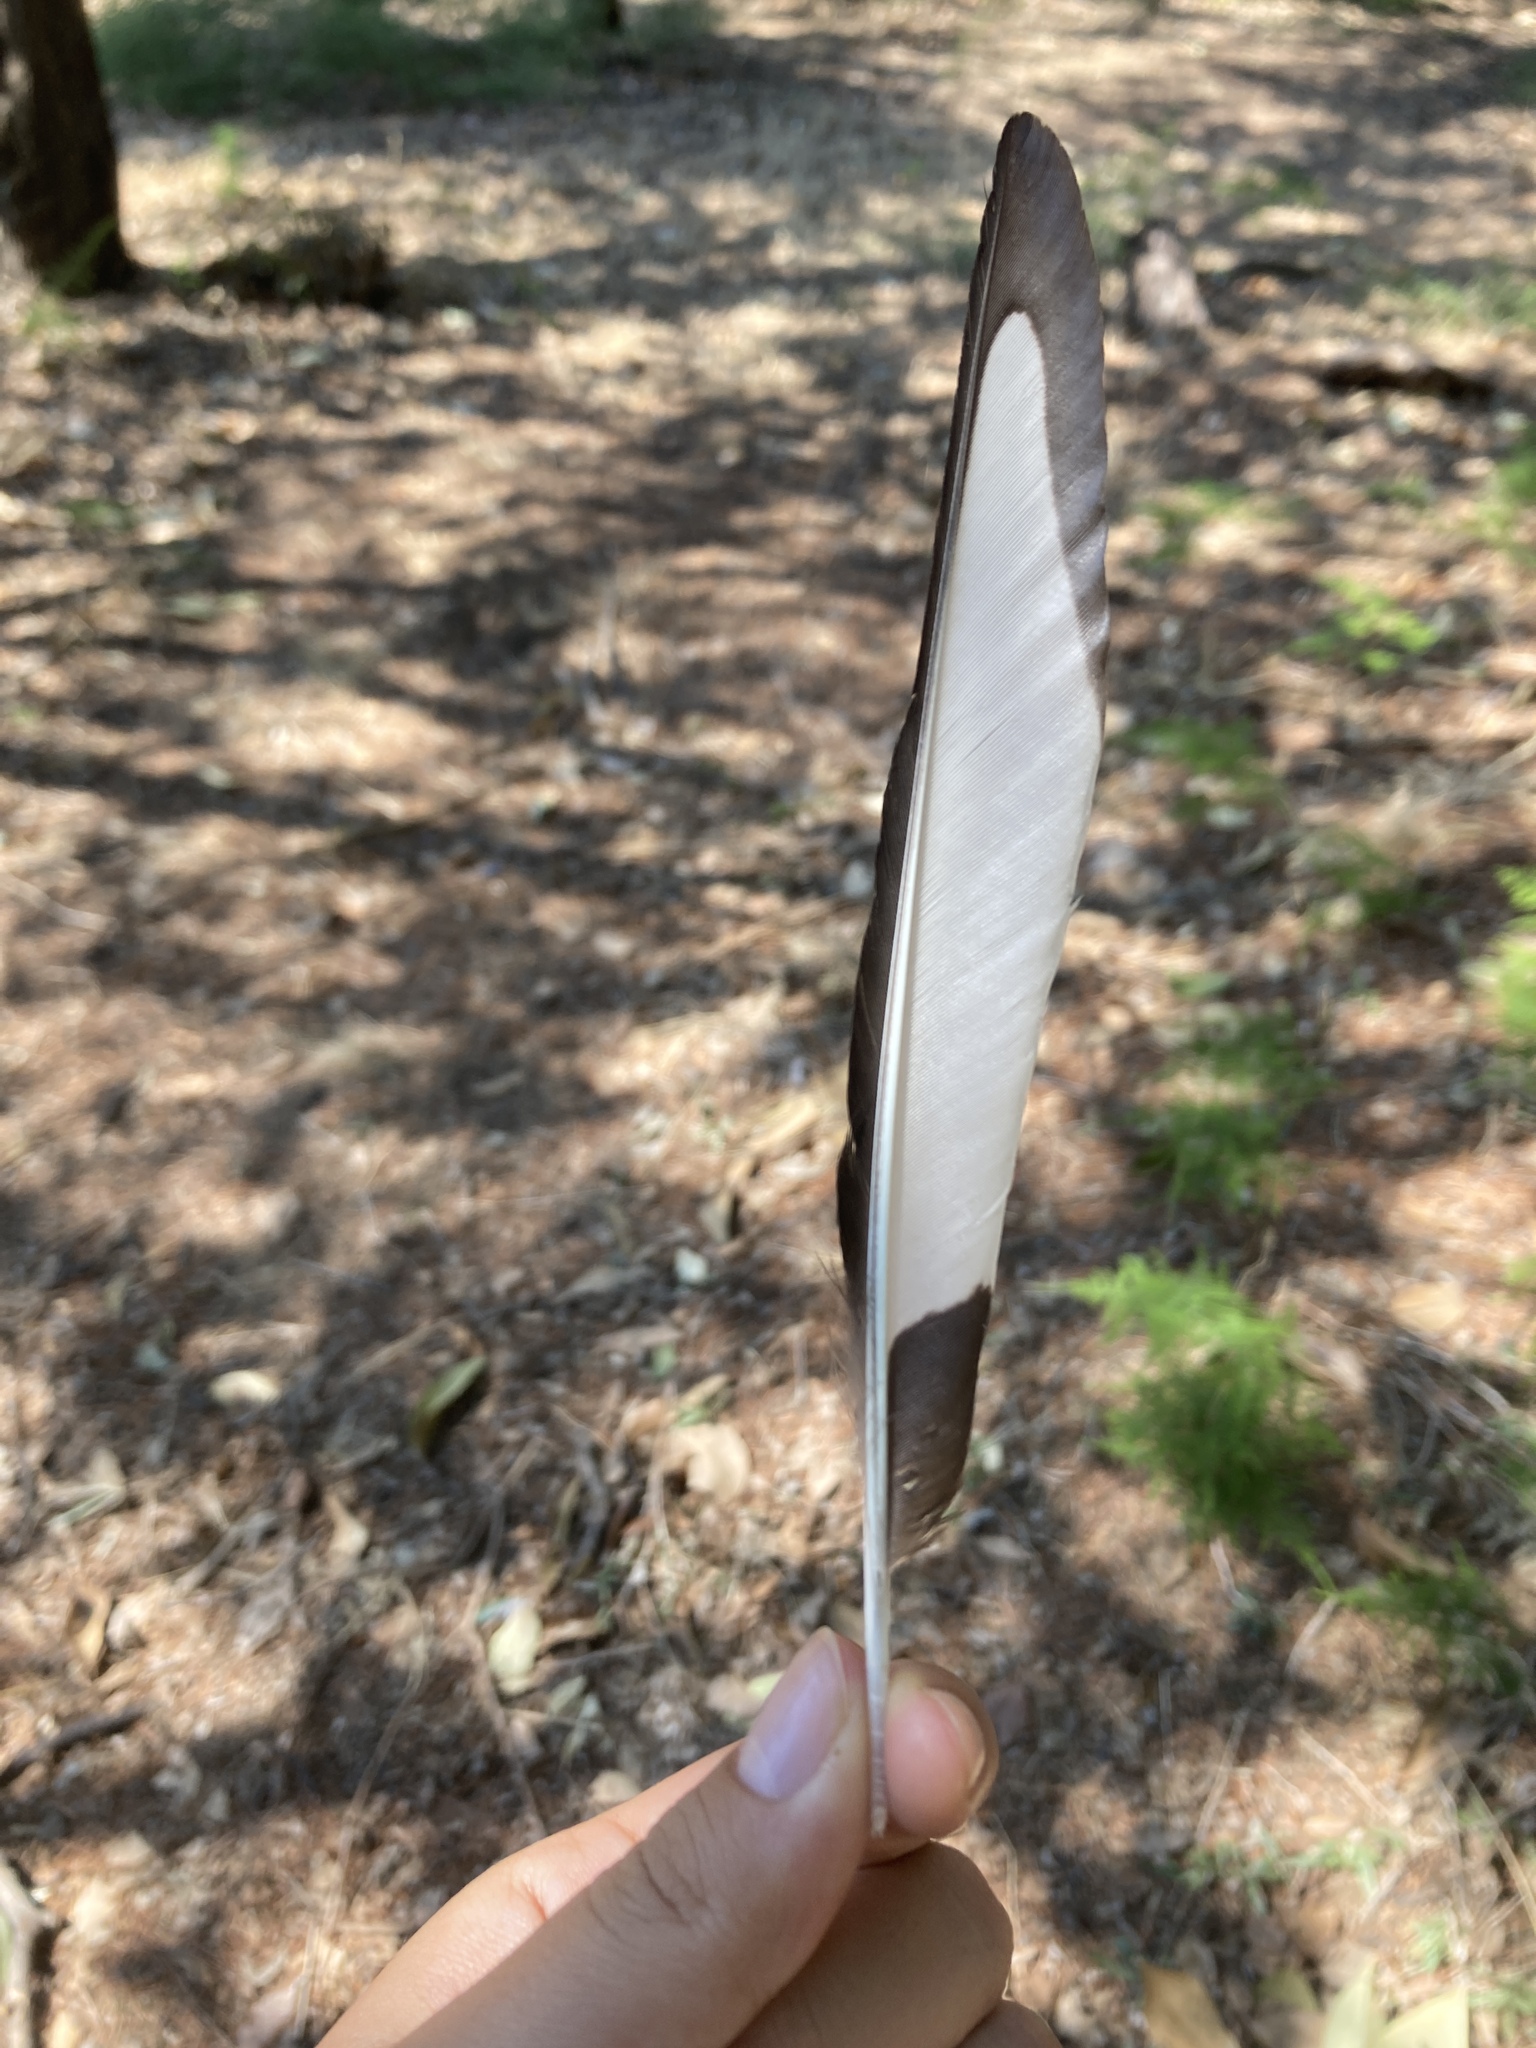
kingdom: Animalia
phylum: Chordata
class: Aves
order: Passeriformes
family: Corvidae
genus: Pica
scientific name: Pica pica
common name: Eurasian magpie
